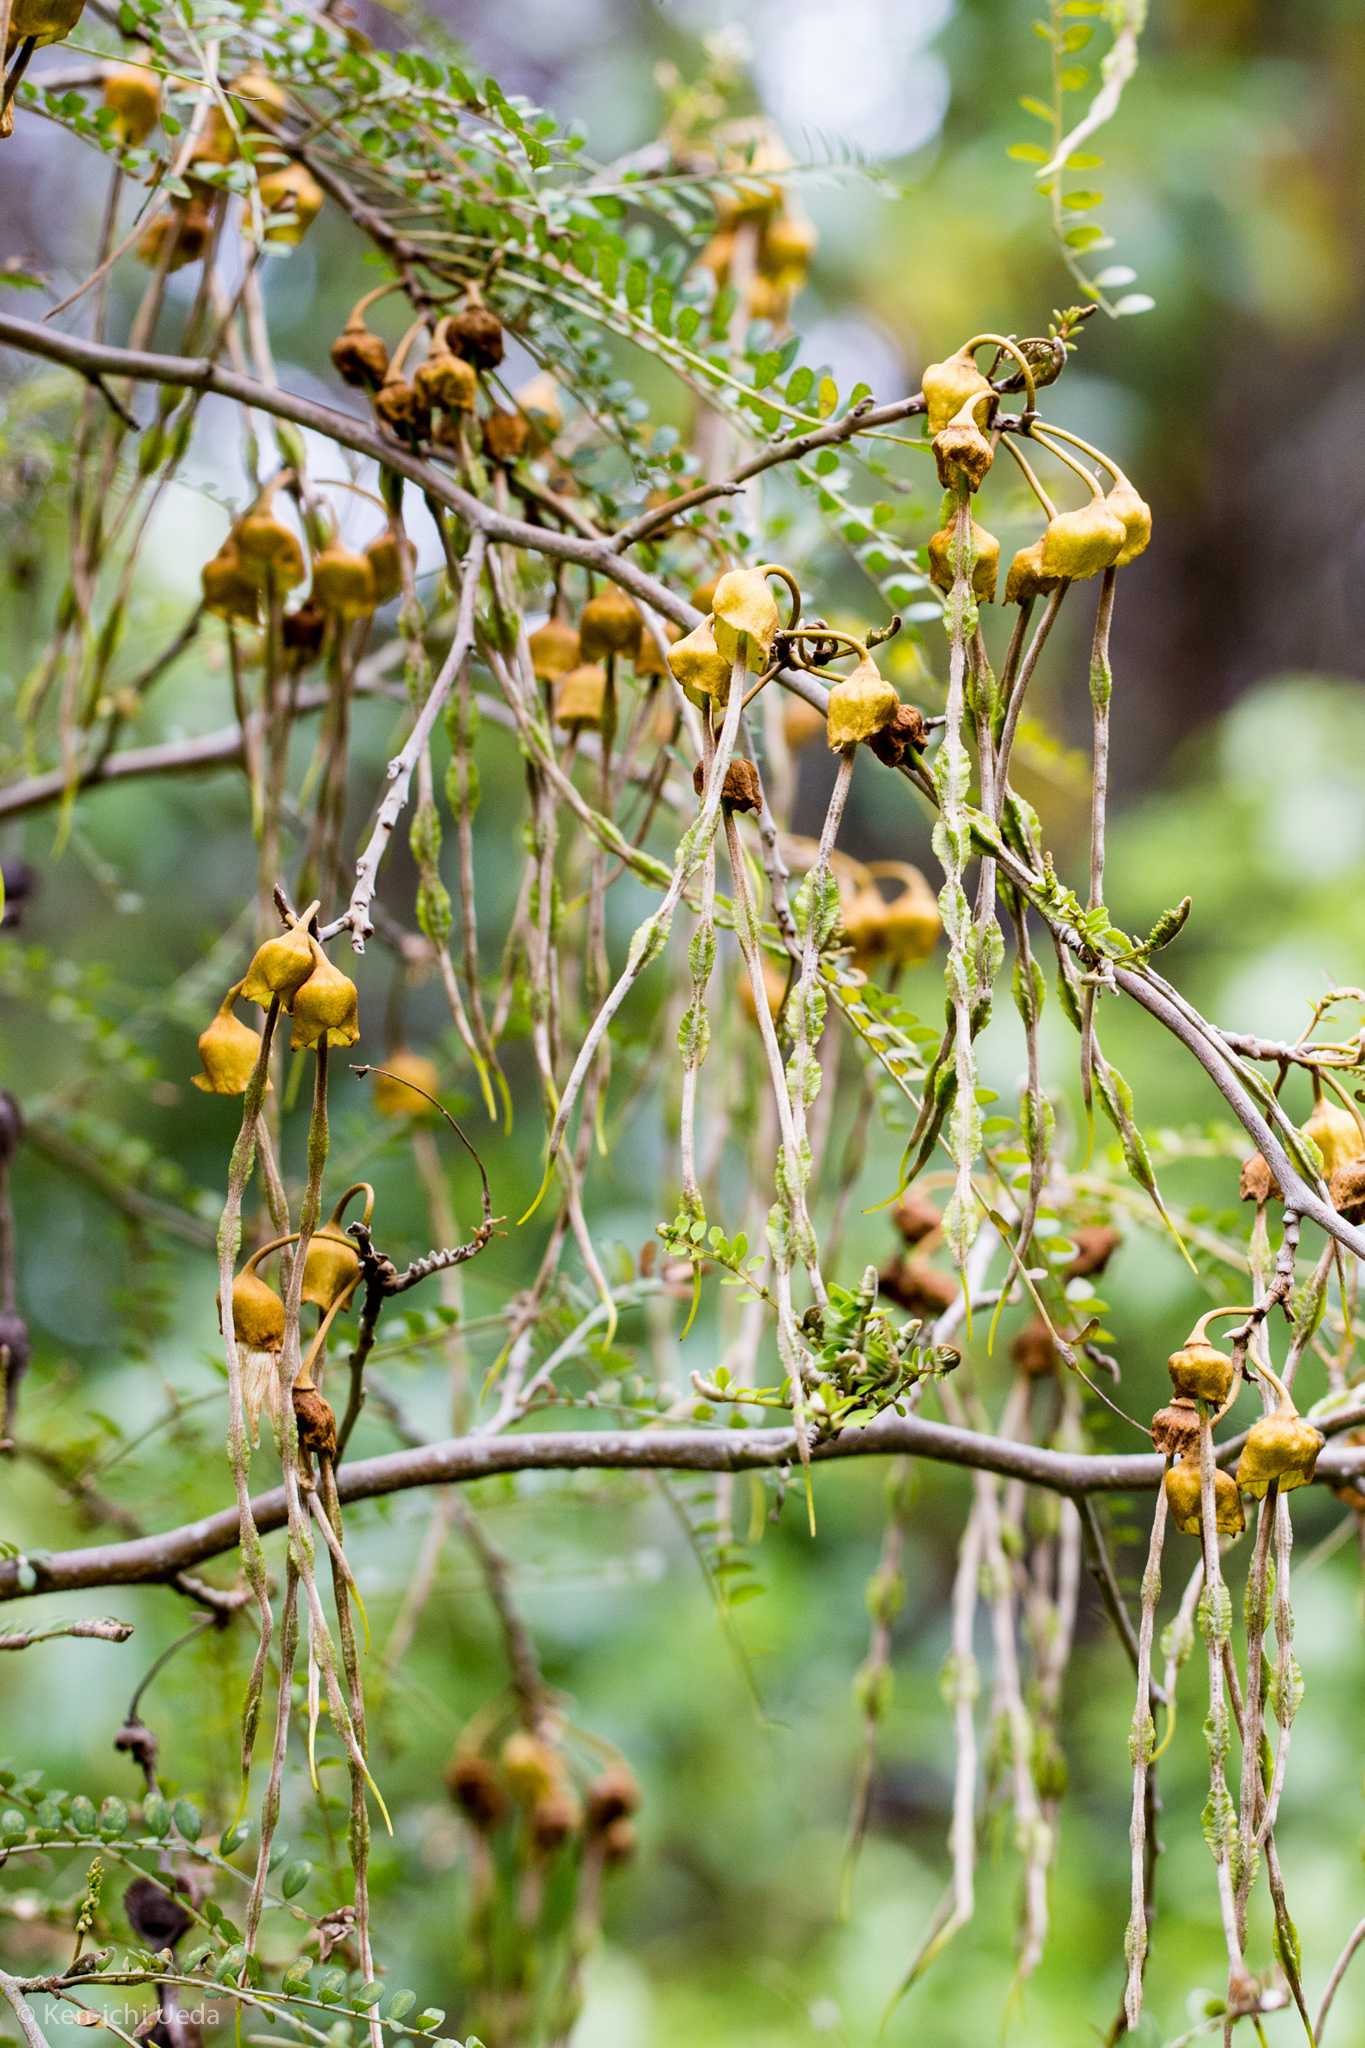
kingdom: Plantae
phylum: Tracheophyta
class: Magnoliopsida
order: Fabales
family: Fabaceae
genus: Sophora
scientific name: Sophora microphylla
